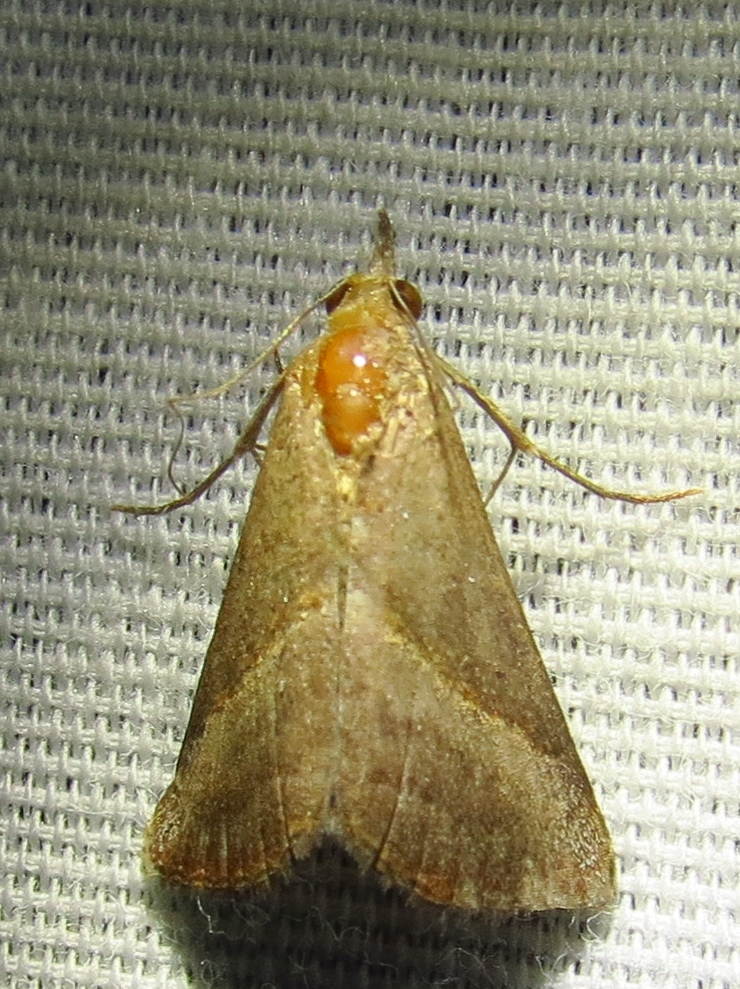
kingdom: Animalia
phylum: Arthropoda
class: Insecta
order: Lepidoptera
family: Erebidae
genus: Hypena
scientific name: Hypena degesalis
